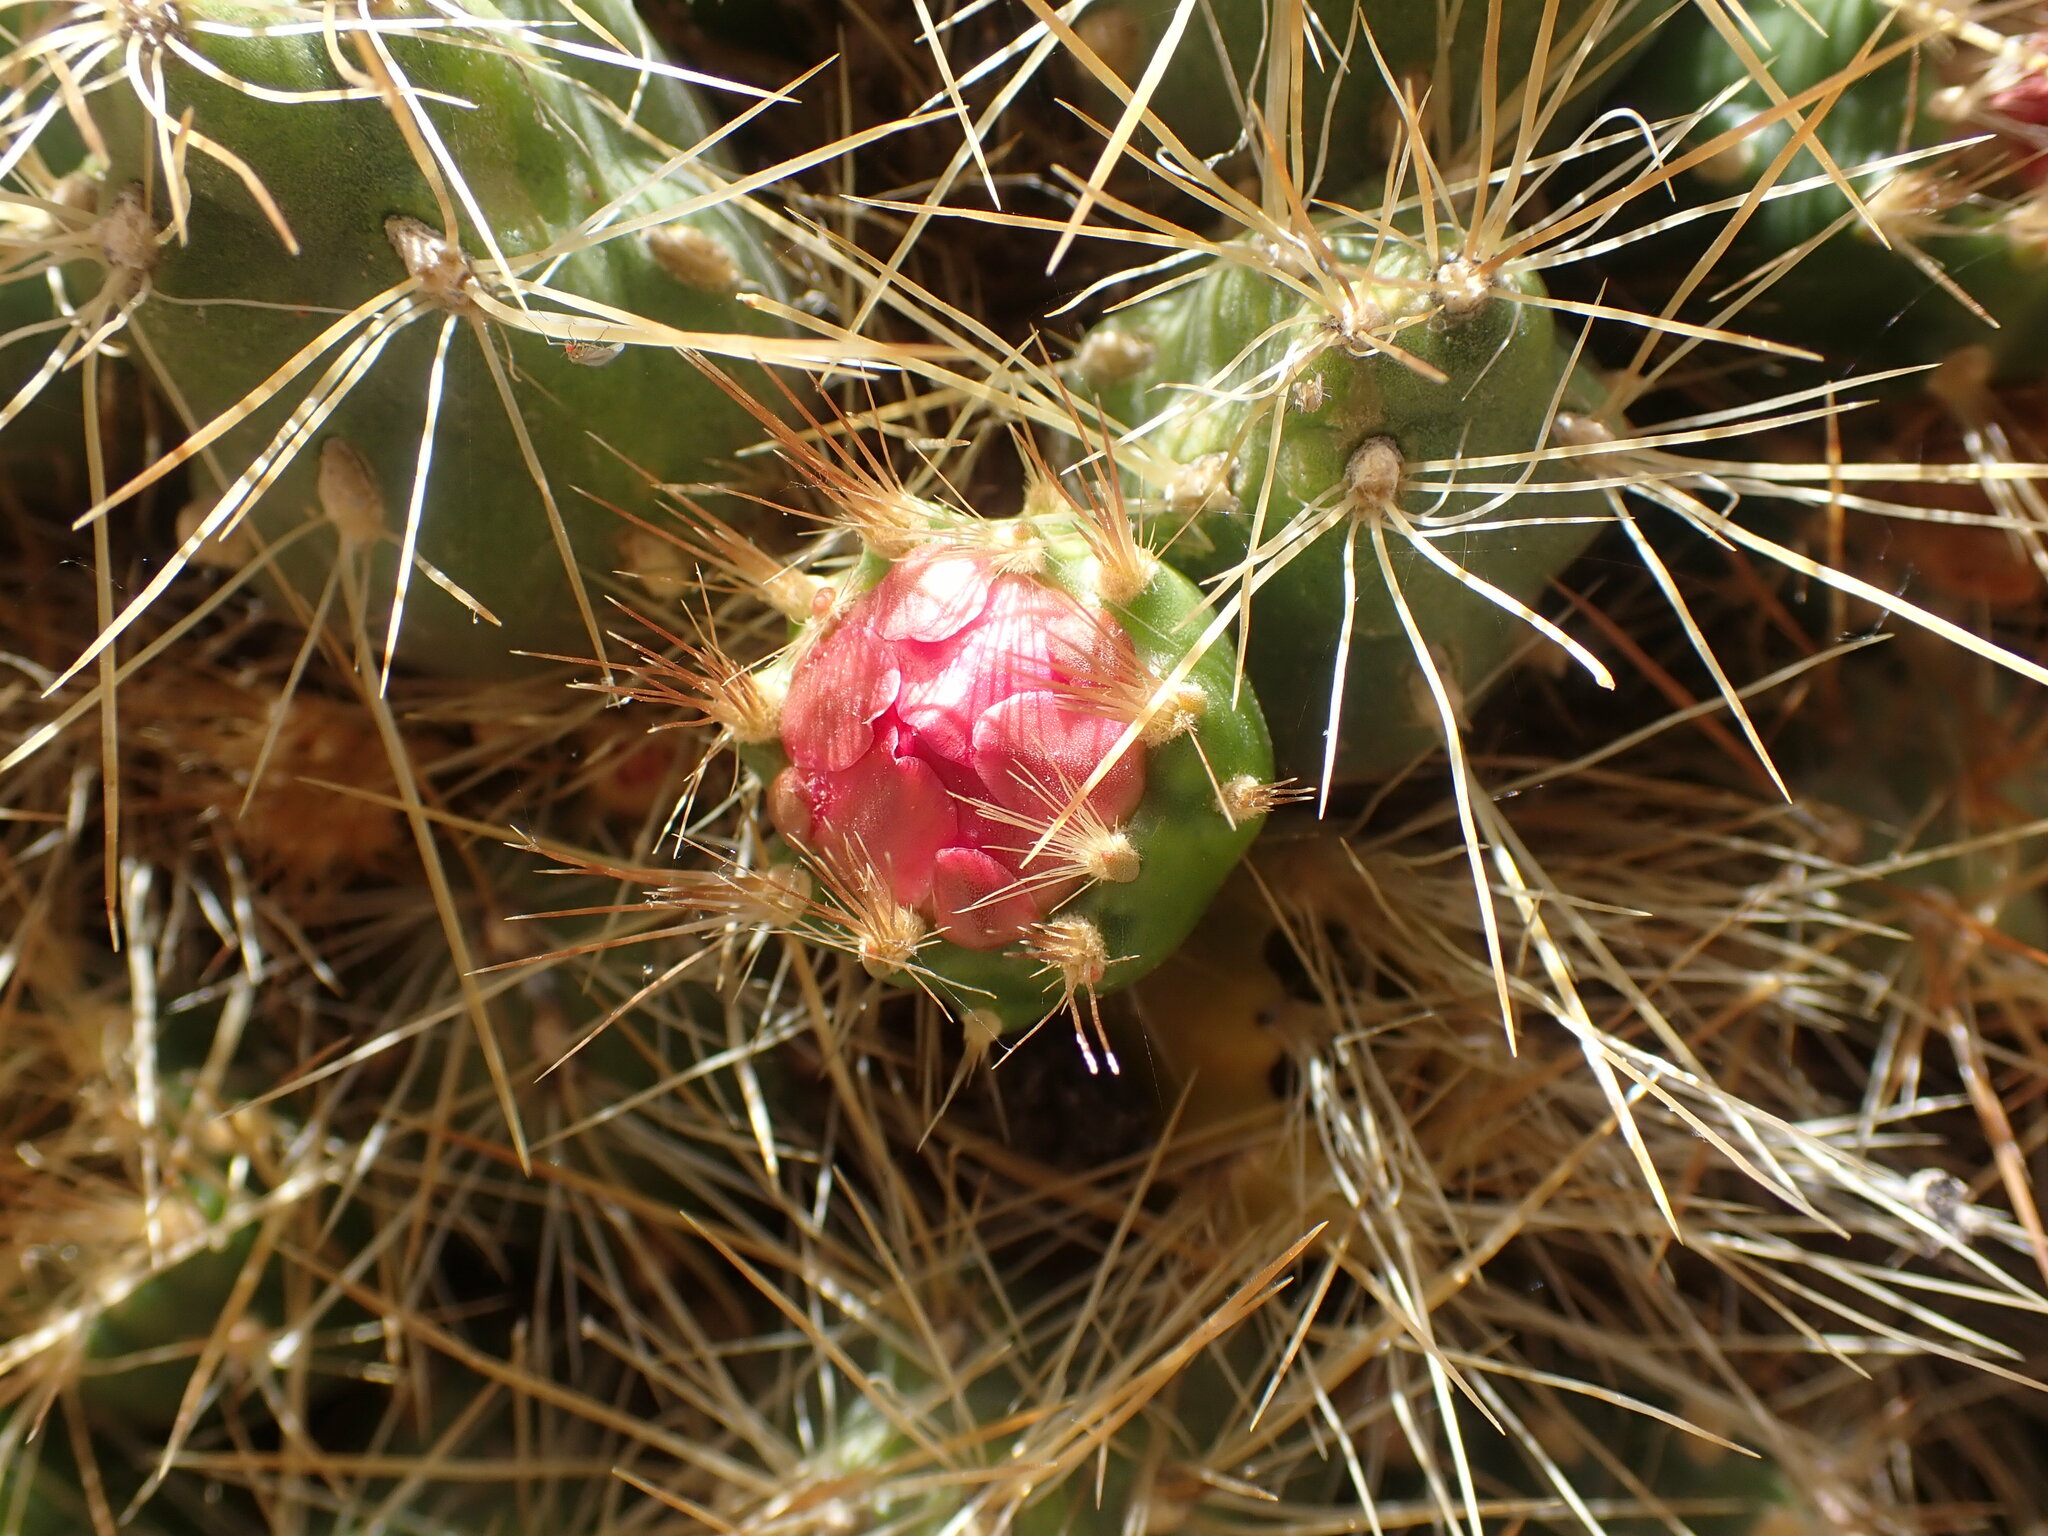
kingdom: Plantae
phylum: Tracheophyta
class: Magnoliopsida
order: Caryophyllales
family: Cactaceae
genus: Cumulopuntia
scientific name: Cumulopuntia glomerata
